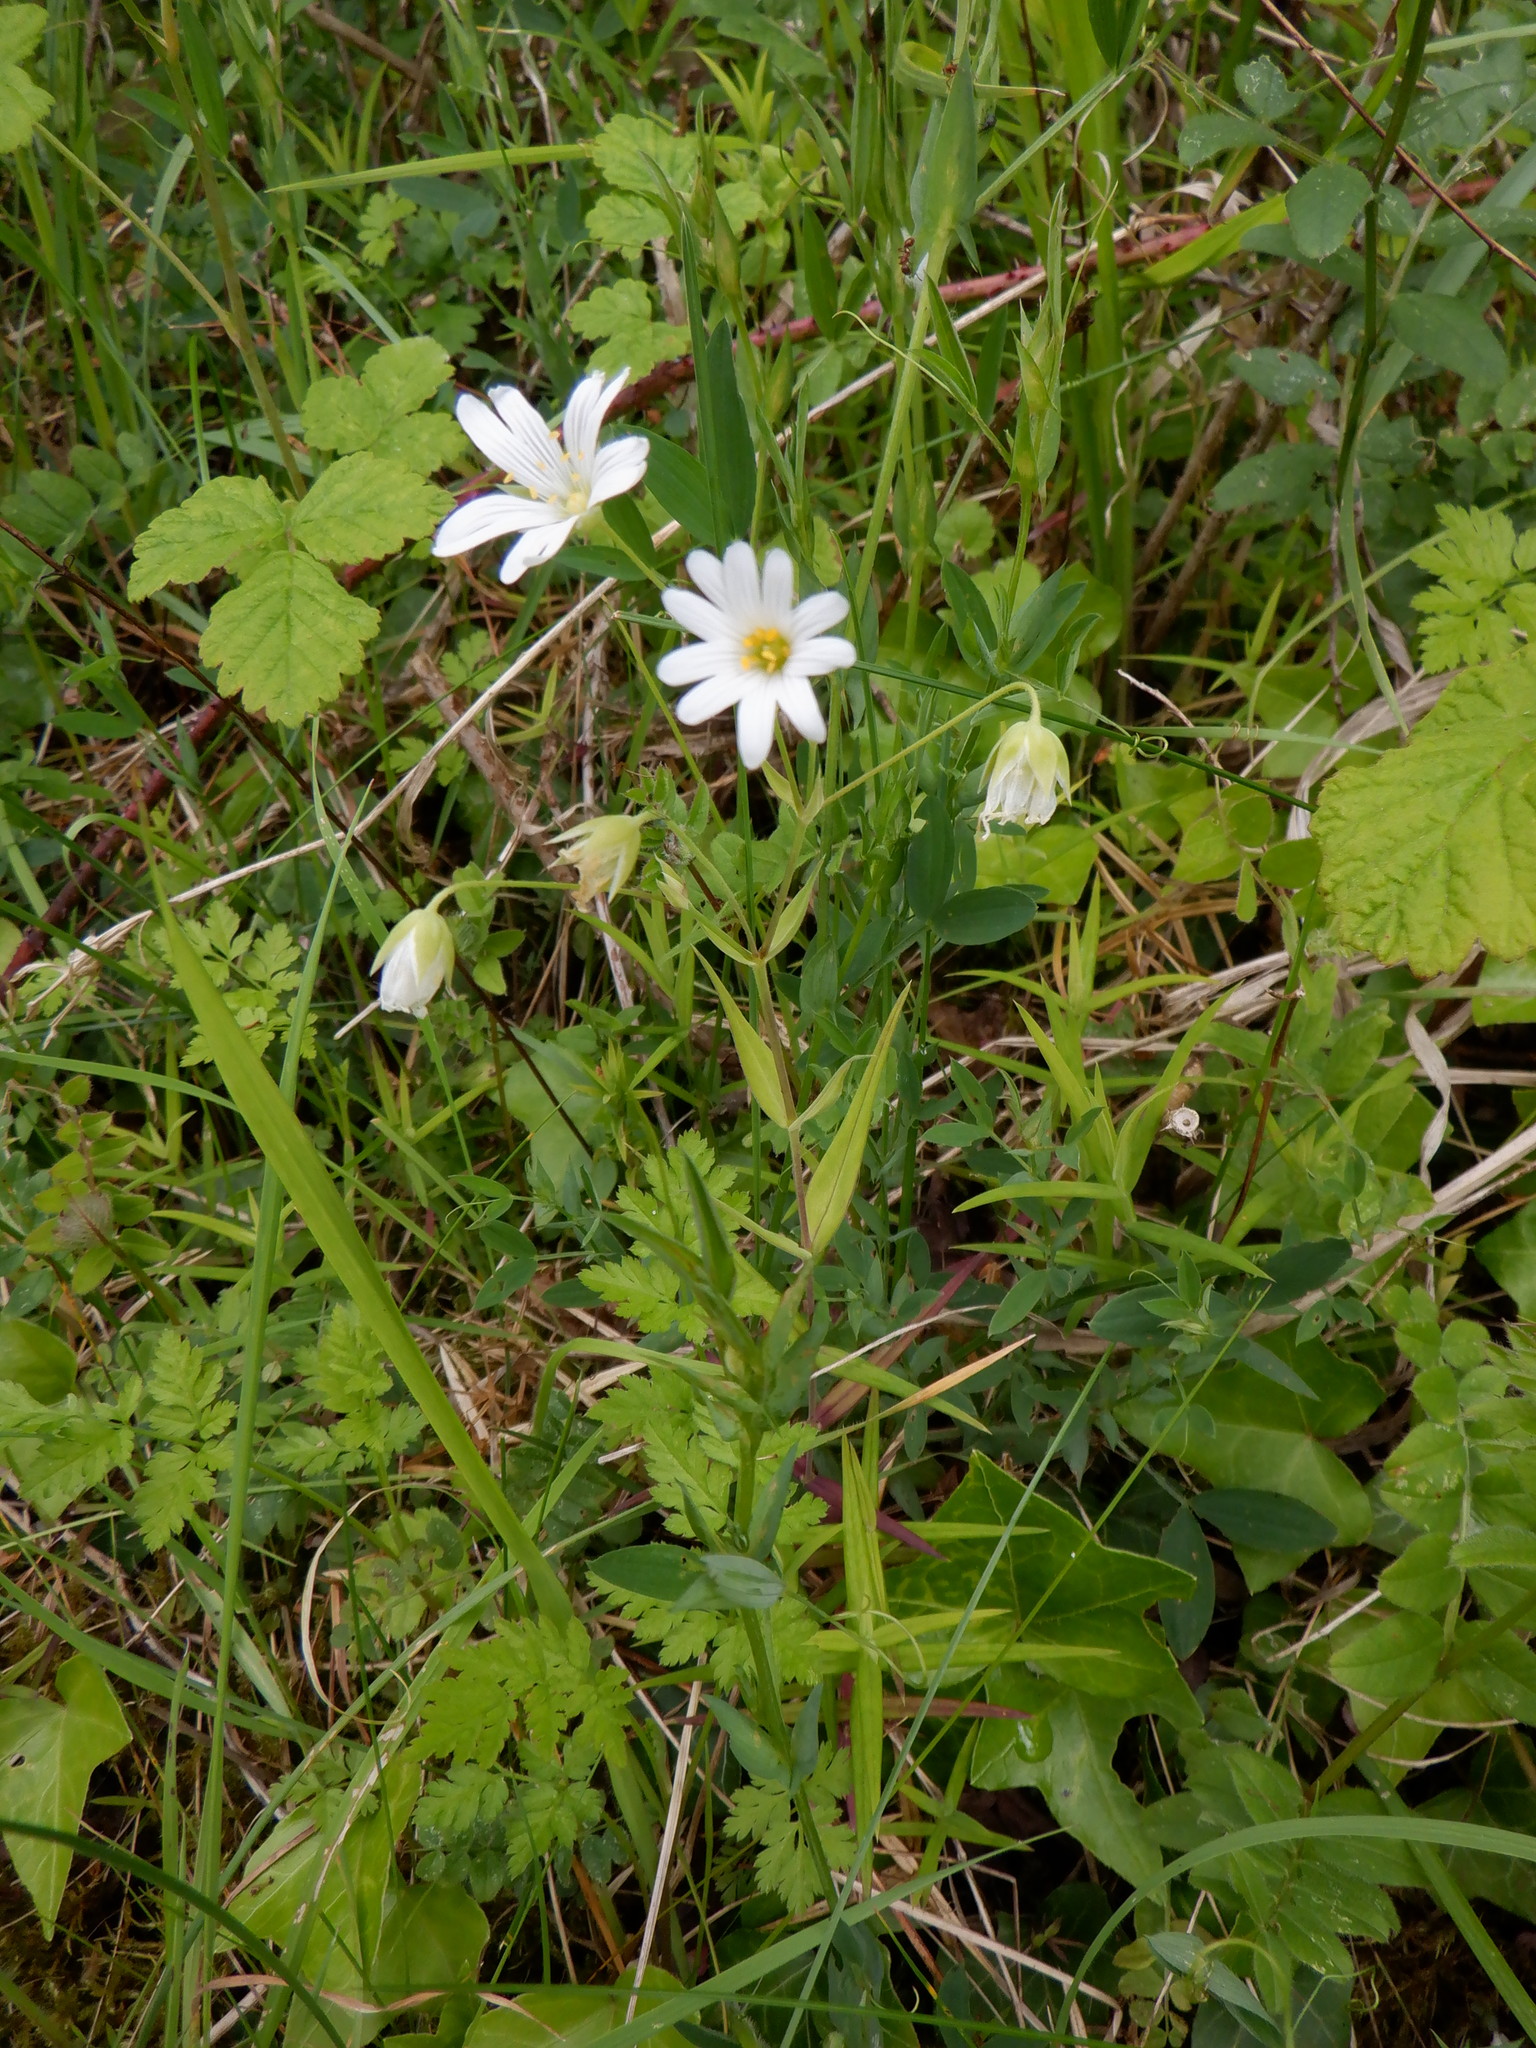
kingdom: Plantae
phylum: Tracheophyta
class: Magnoliopsida
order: Caryophyllales
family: Caryophyllaceae
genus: Rabelera
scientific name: Rabelera holostea
